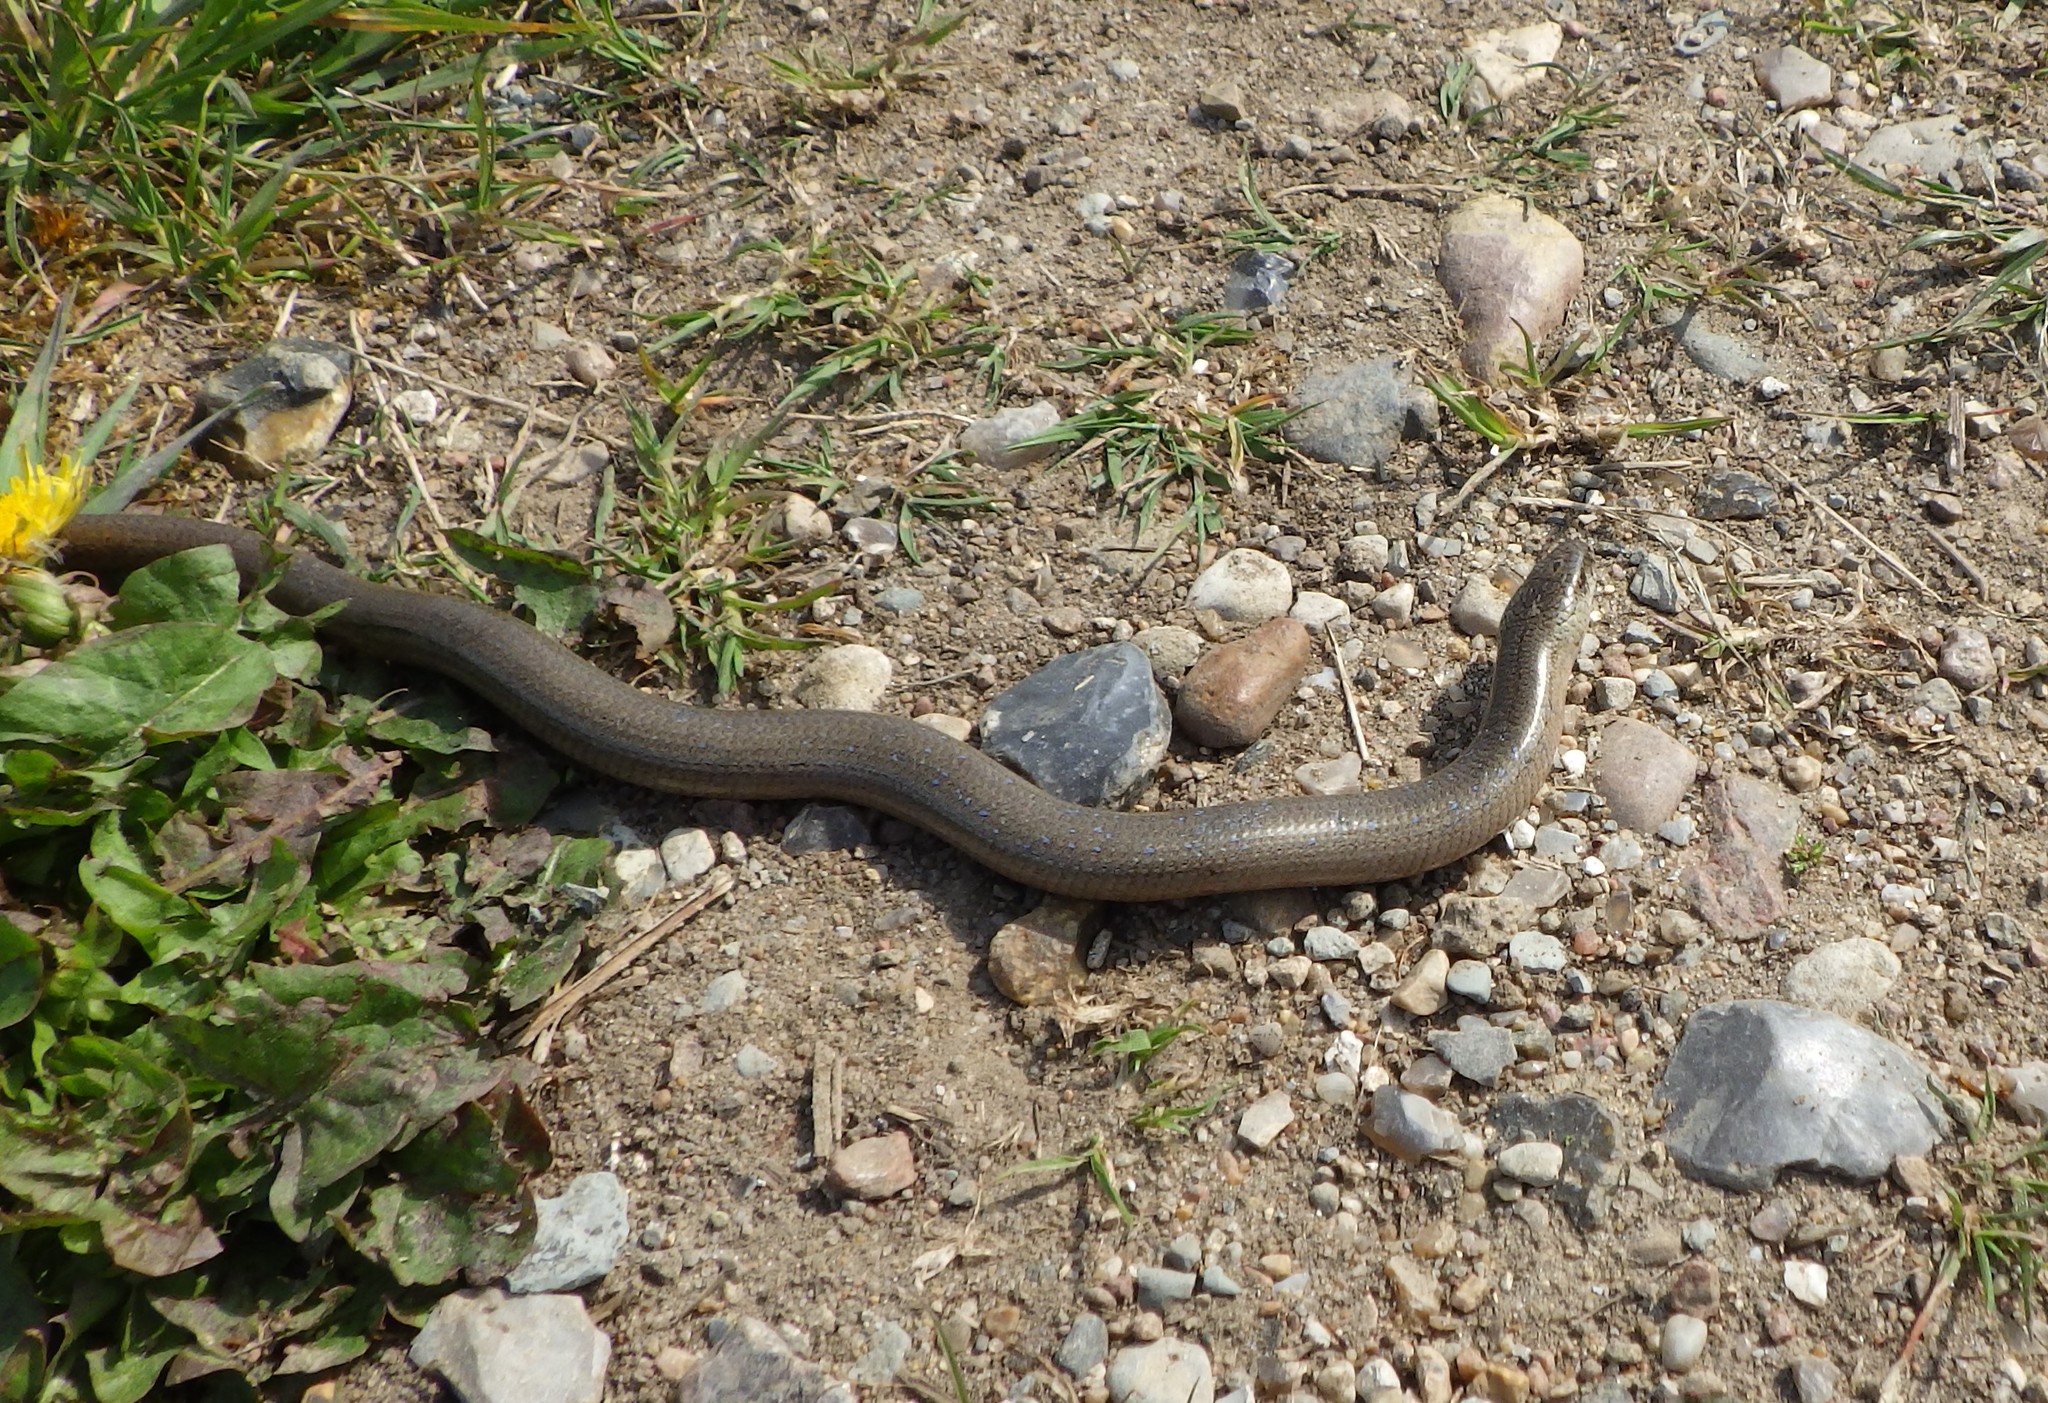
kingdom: Animalia
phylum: Chordata
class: Squamata
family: Anguidae
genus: Anguis
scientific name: Anguis fragilis
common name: Slow worm
